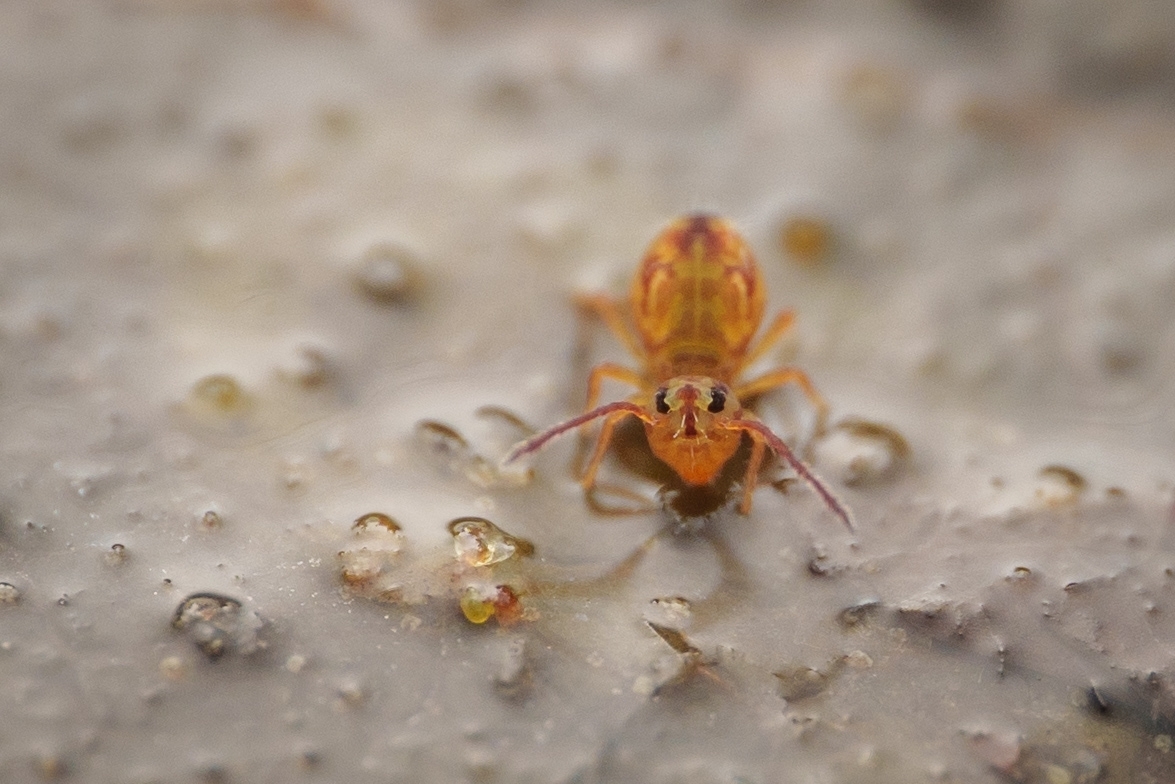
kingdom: Animalia
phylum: Arthropoda
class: Collembola
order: Symphypleona
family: Dicyrtomidae
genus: Dicyrtomina
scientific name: Dicyrtomina minuta
